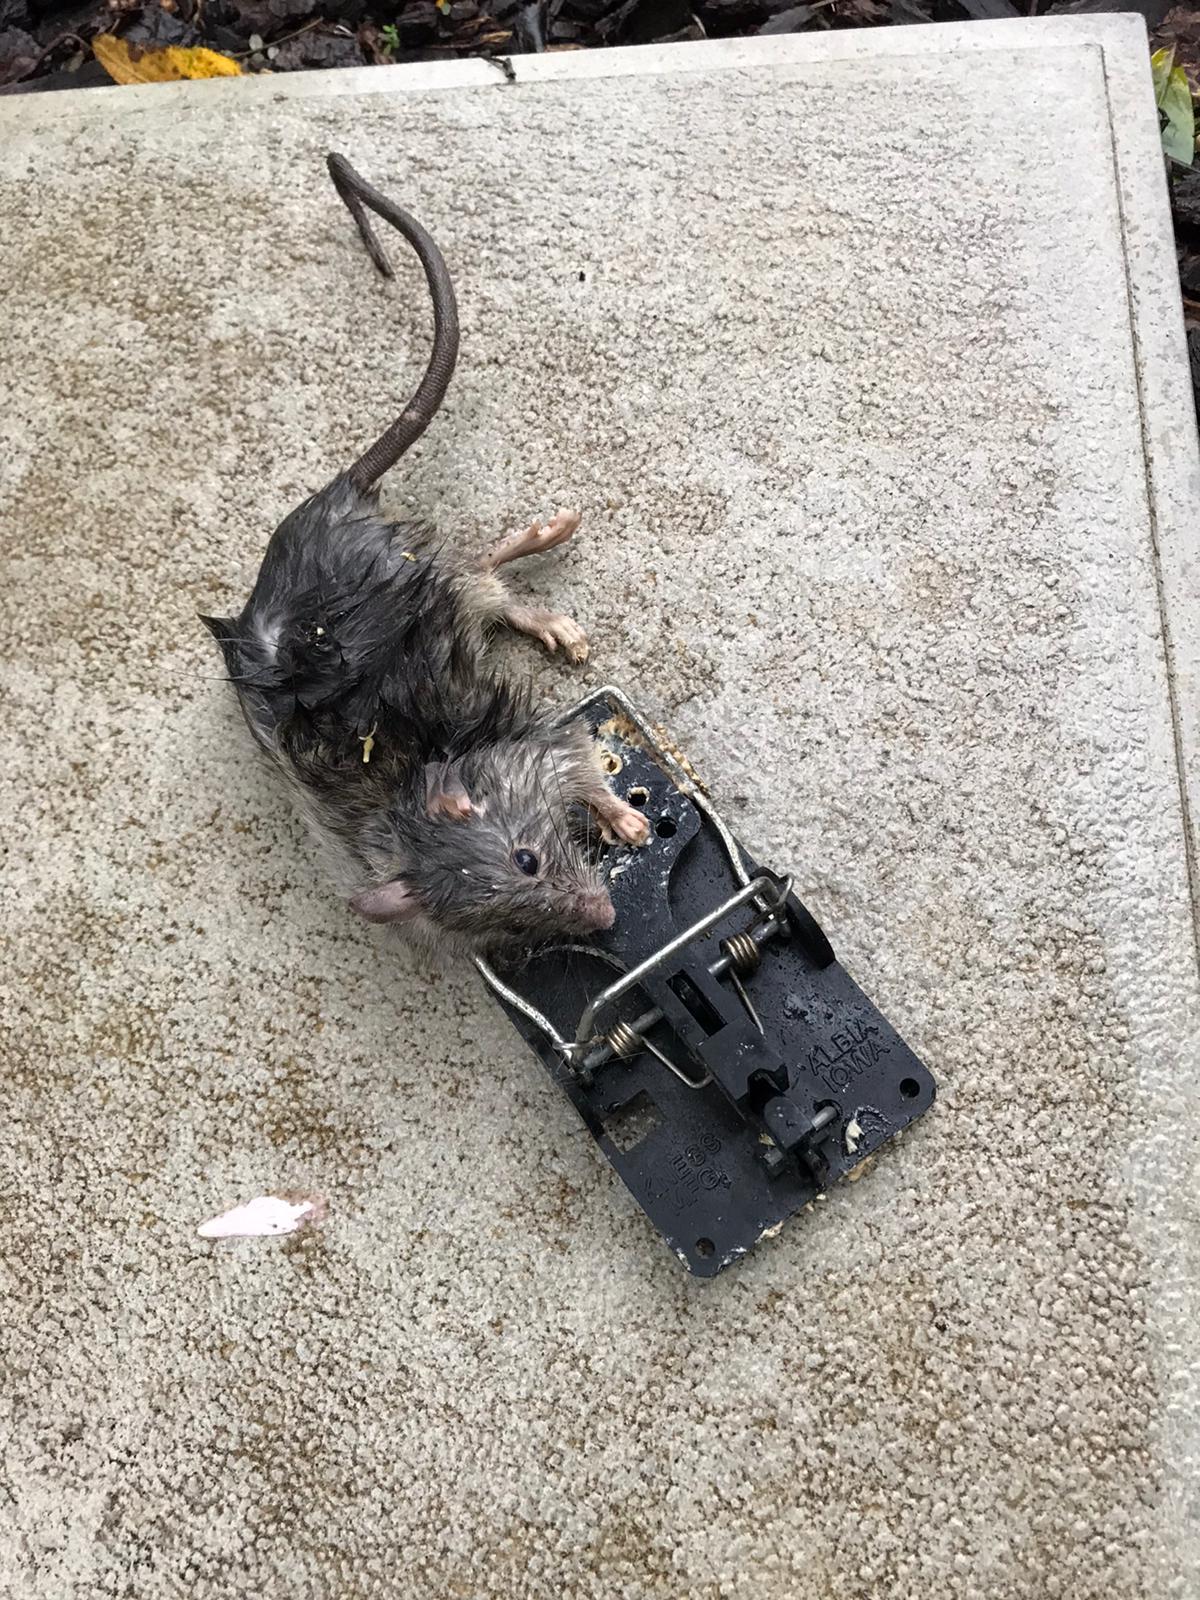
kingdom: Animalia
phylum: Chordata
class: Mammalia
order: Rodentia
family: Muridae
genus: Rattus
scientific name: Rattus rattus
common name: Black rat
